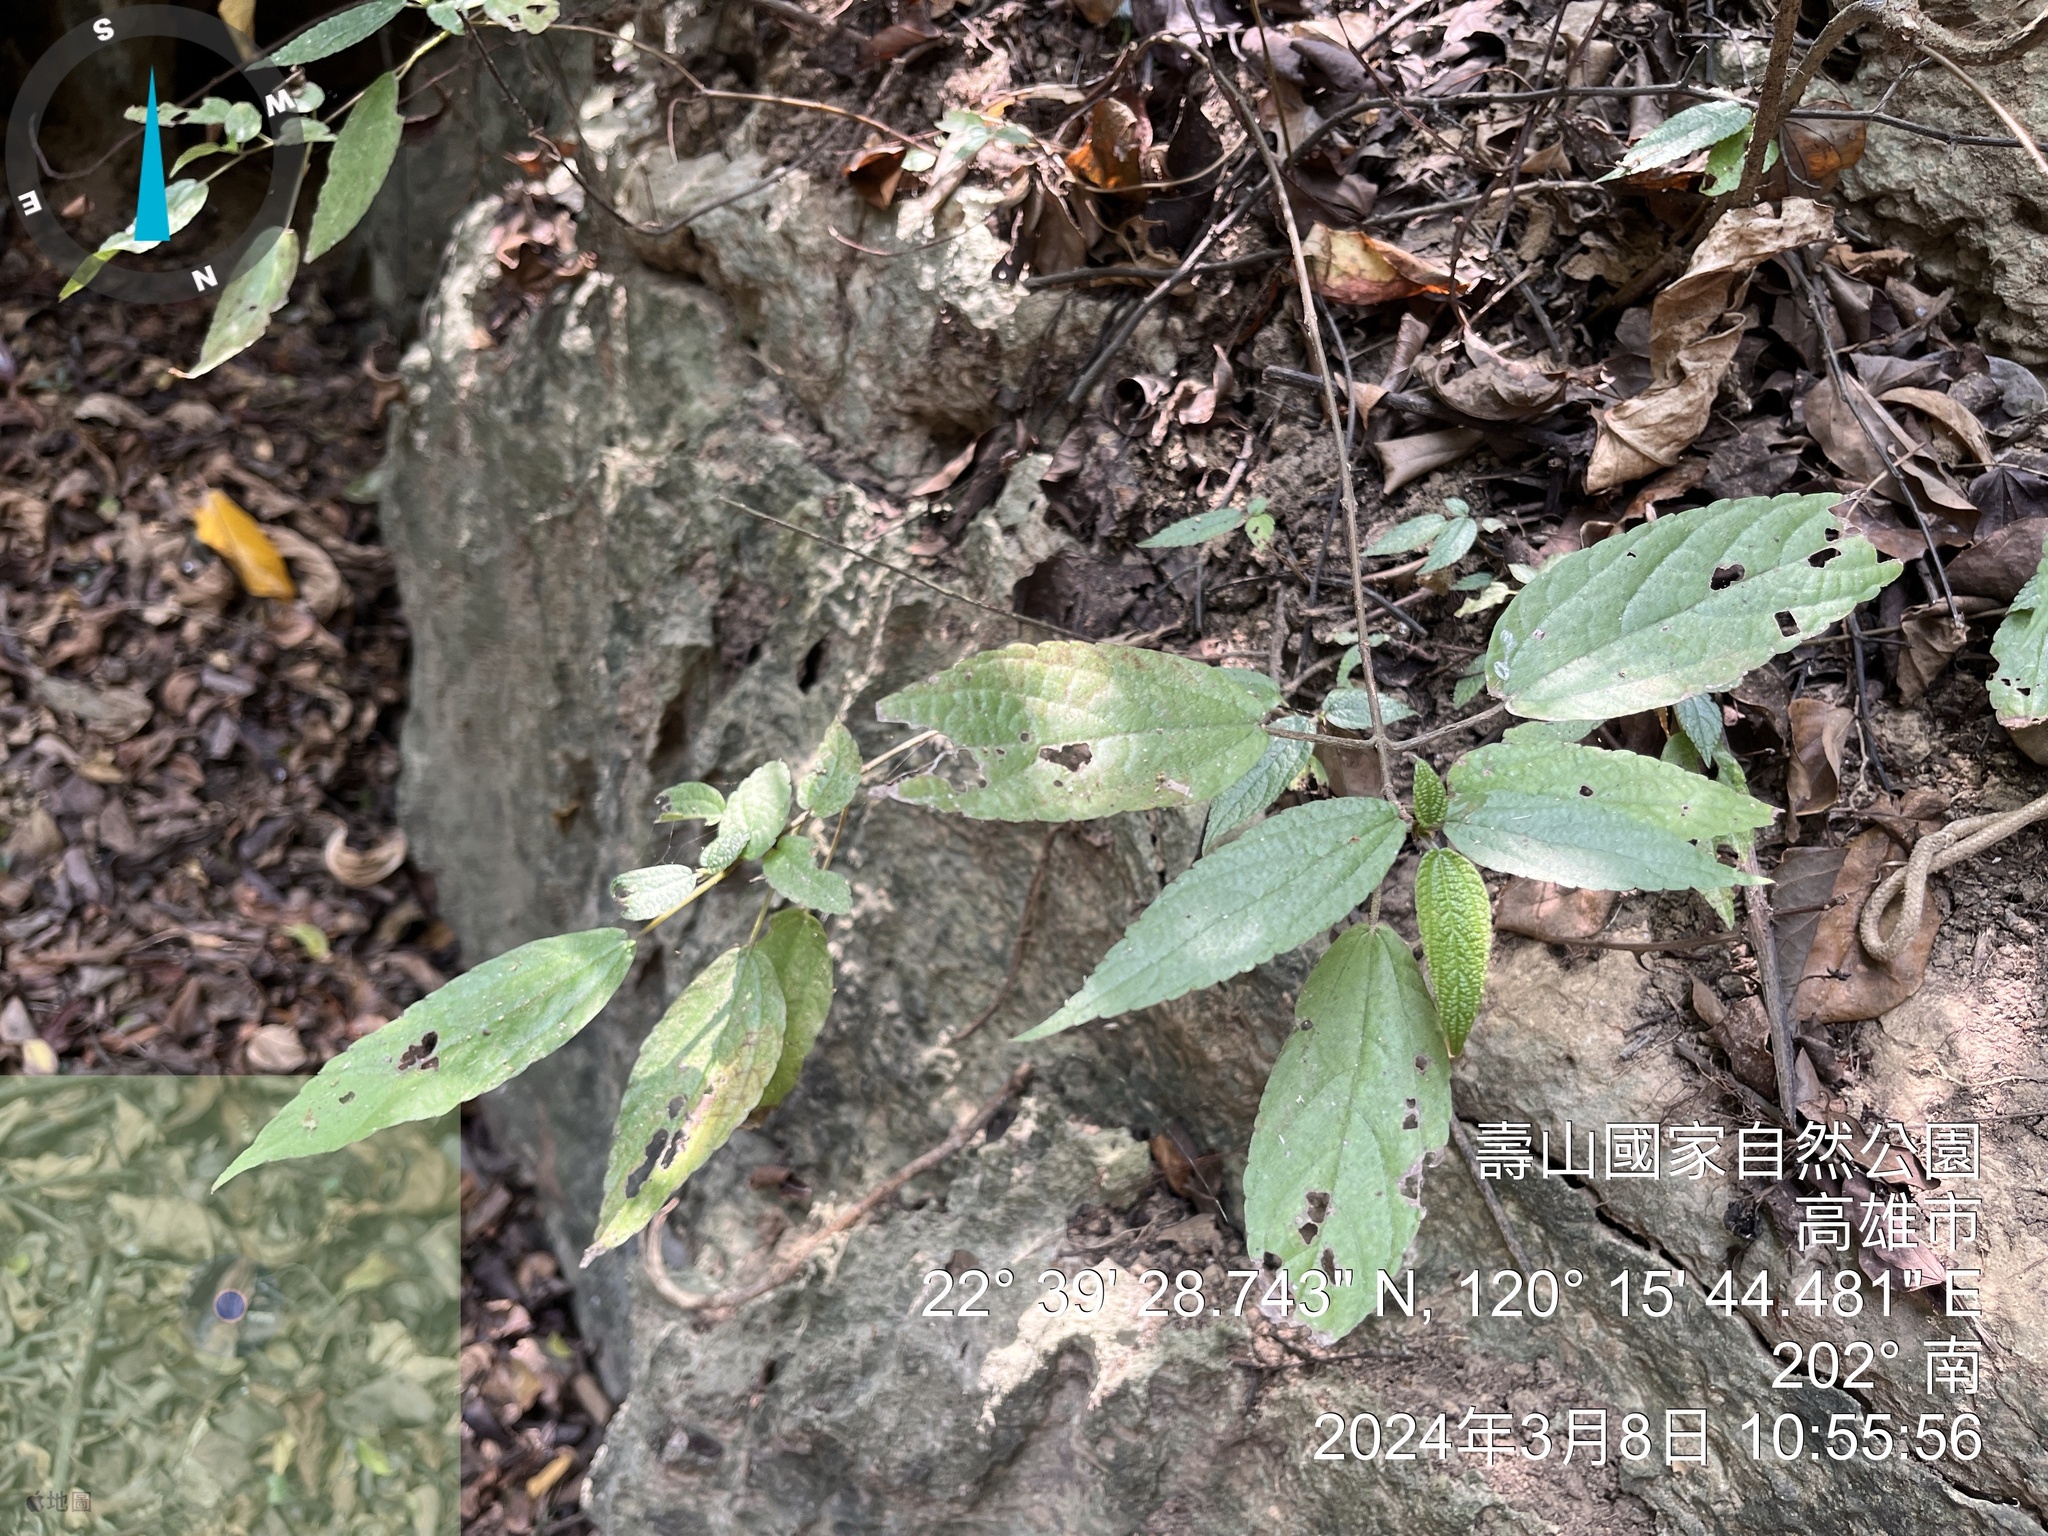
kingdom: Plantae
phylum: Tracheophyta
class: Magnoliopsida
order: Rosales
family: Urticaceae
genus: Boehmeria
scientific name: Boehmeria zollingeriana
